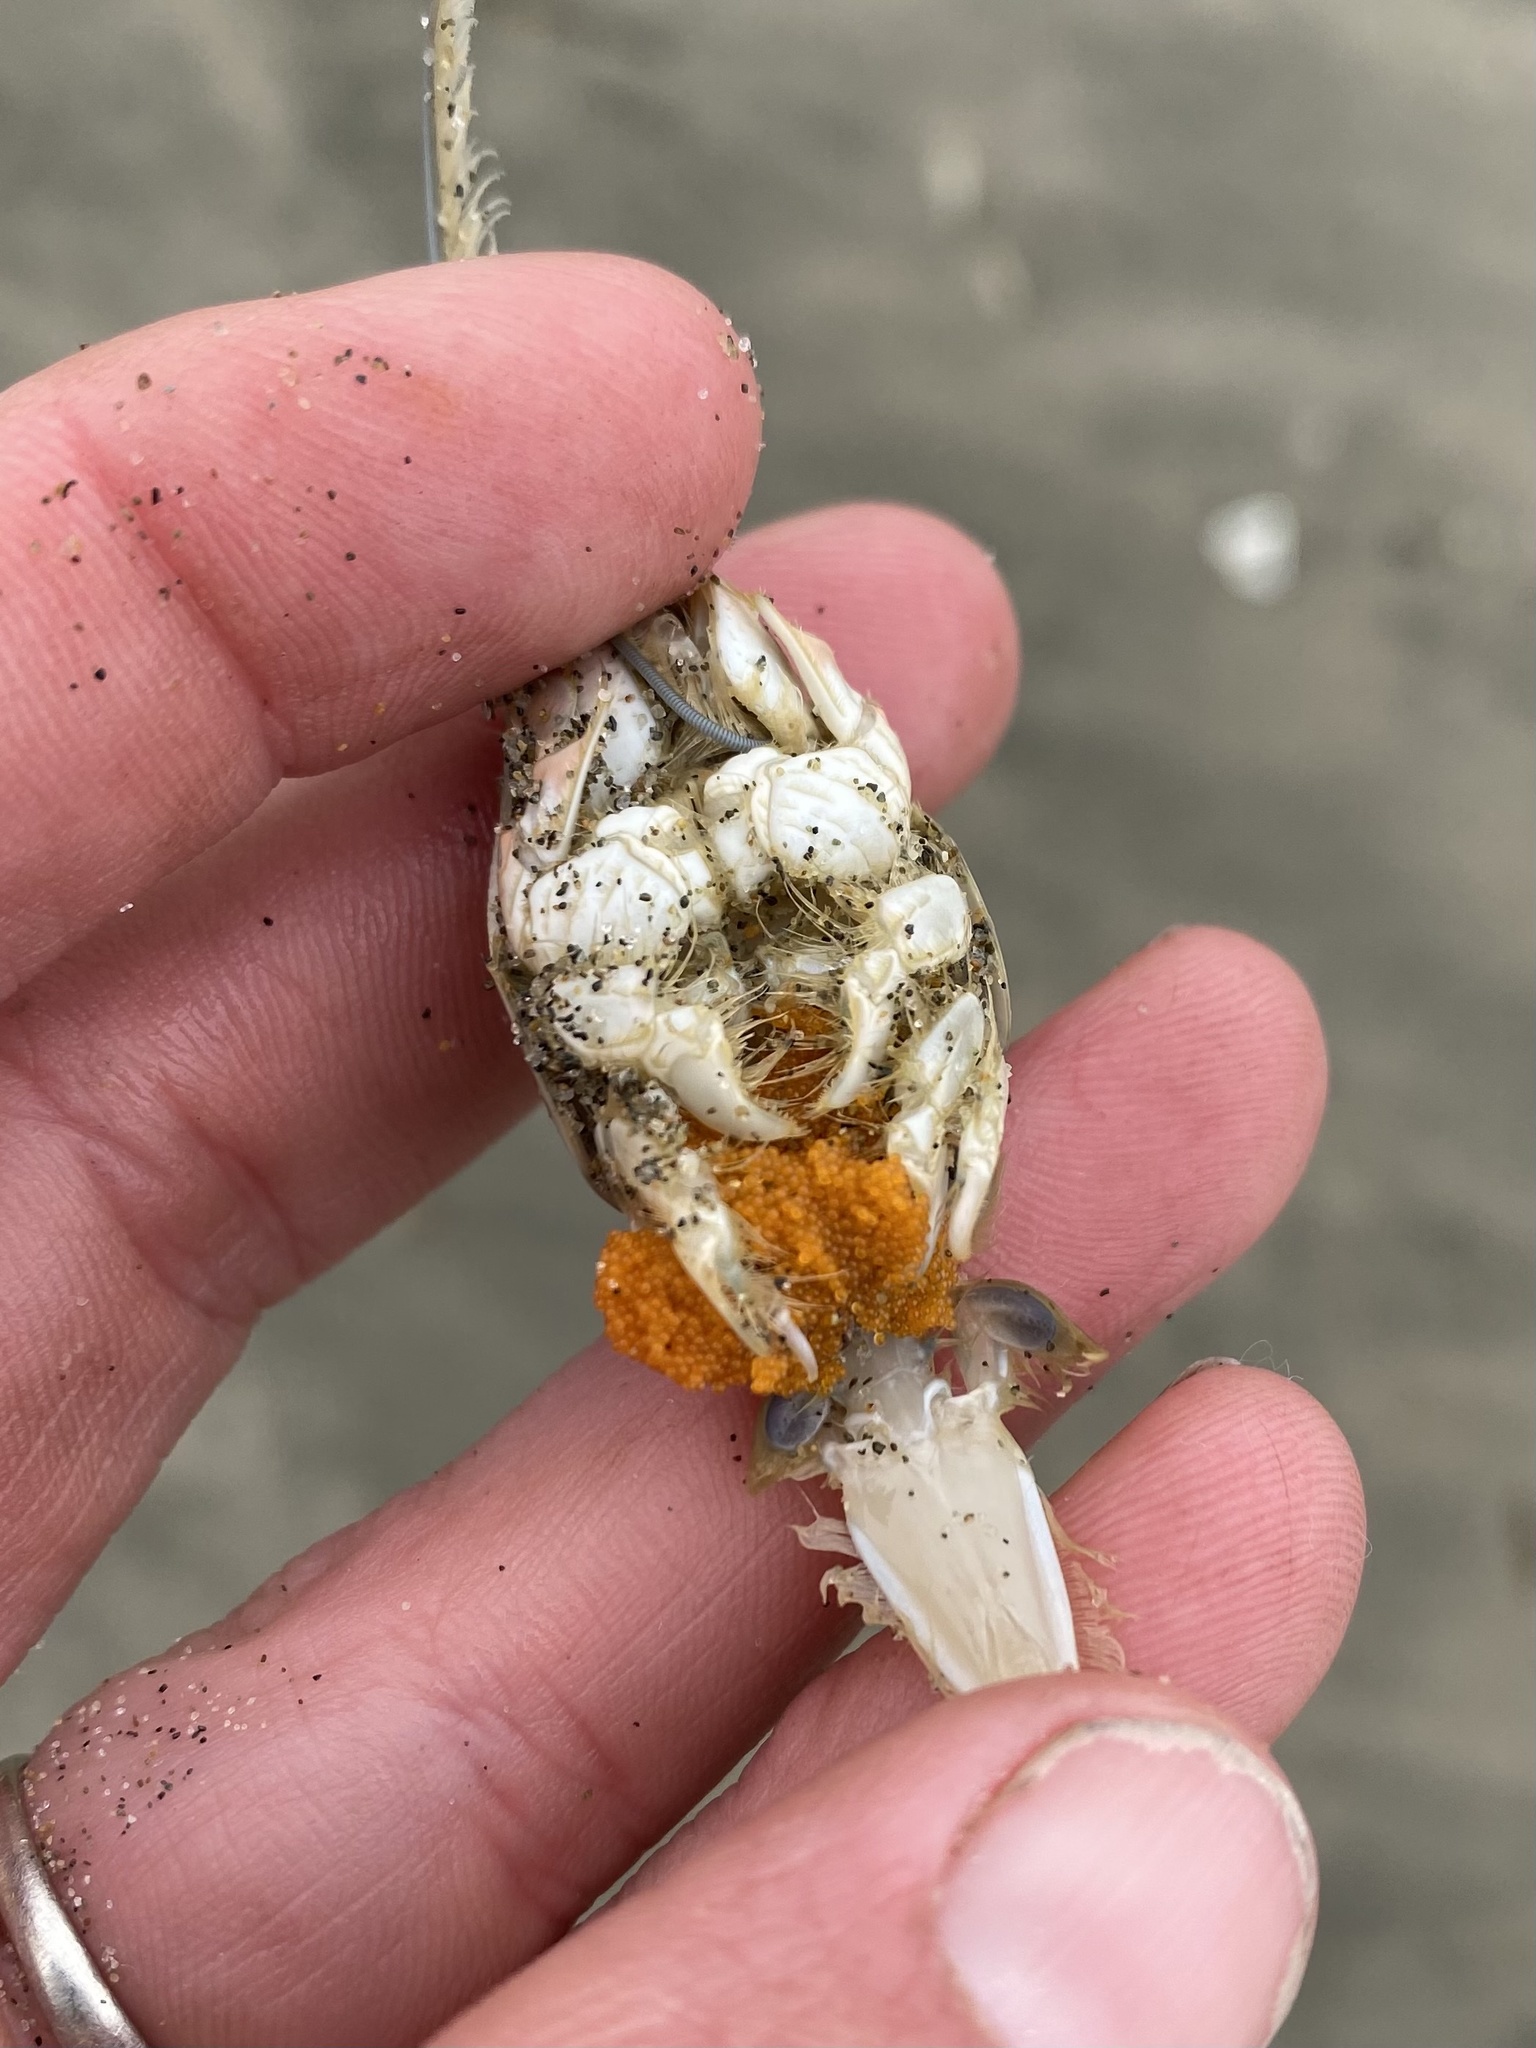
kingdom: Animalia
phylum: Arthropoda
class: Malacostraca
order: Decapoda
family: Hippidae
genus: Emerita
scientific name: Emerita analoga
